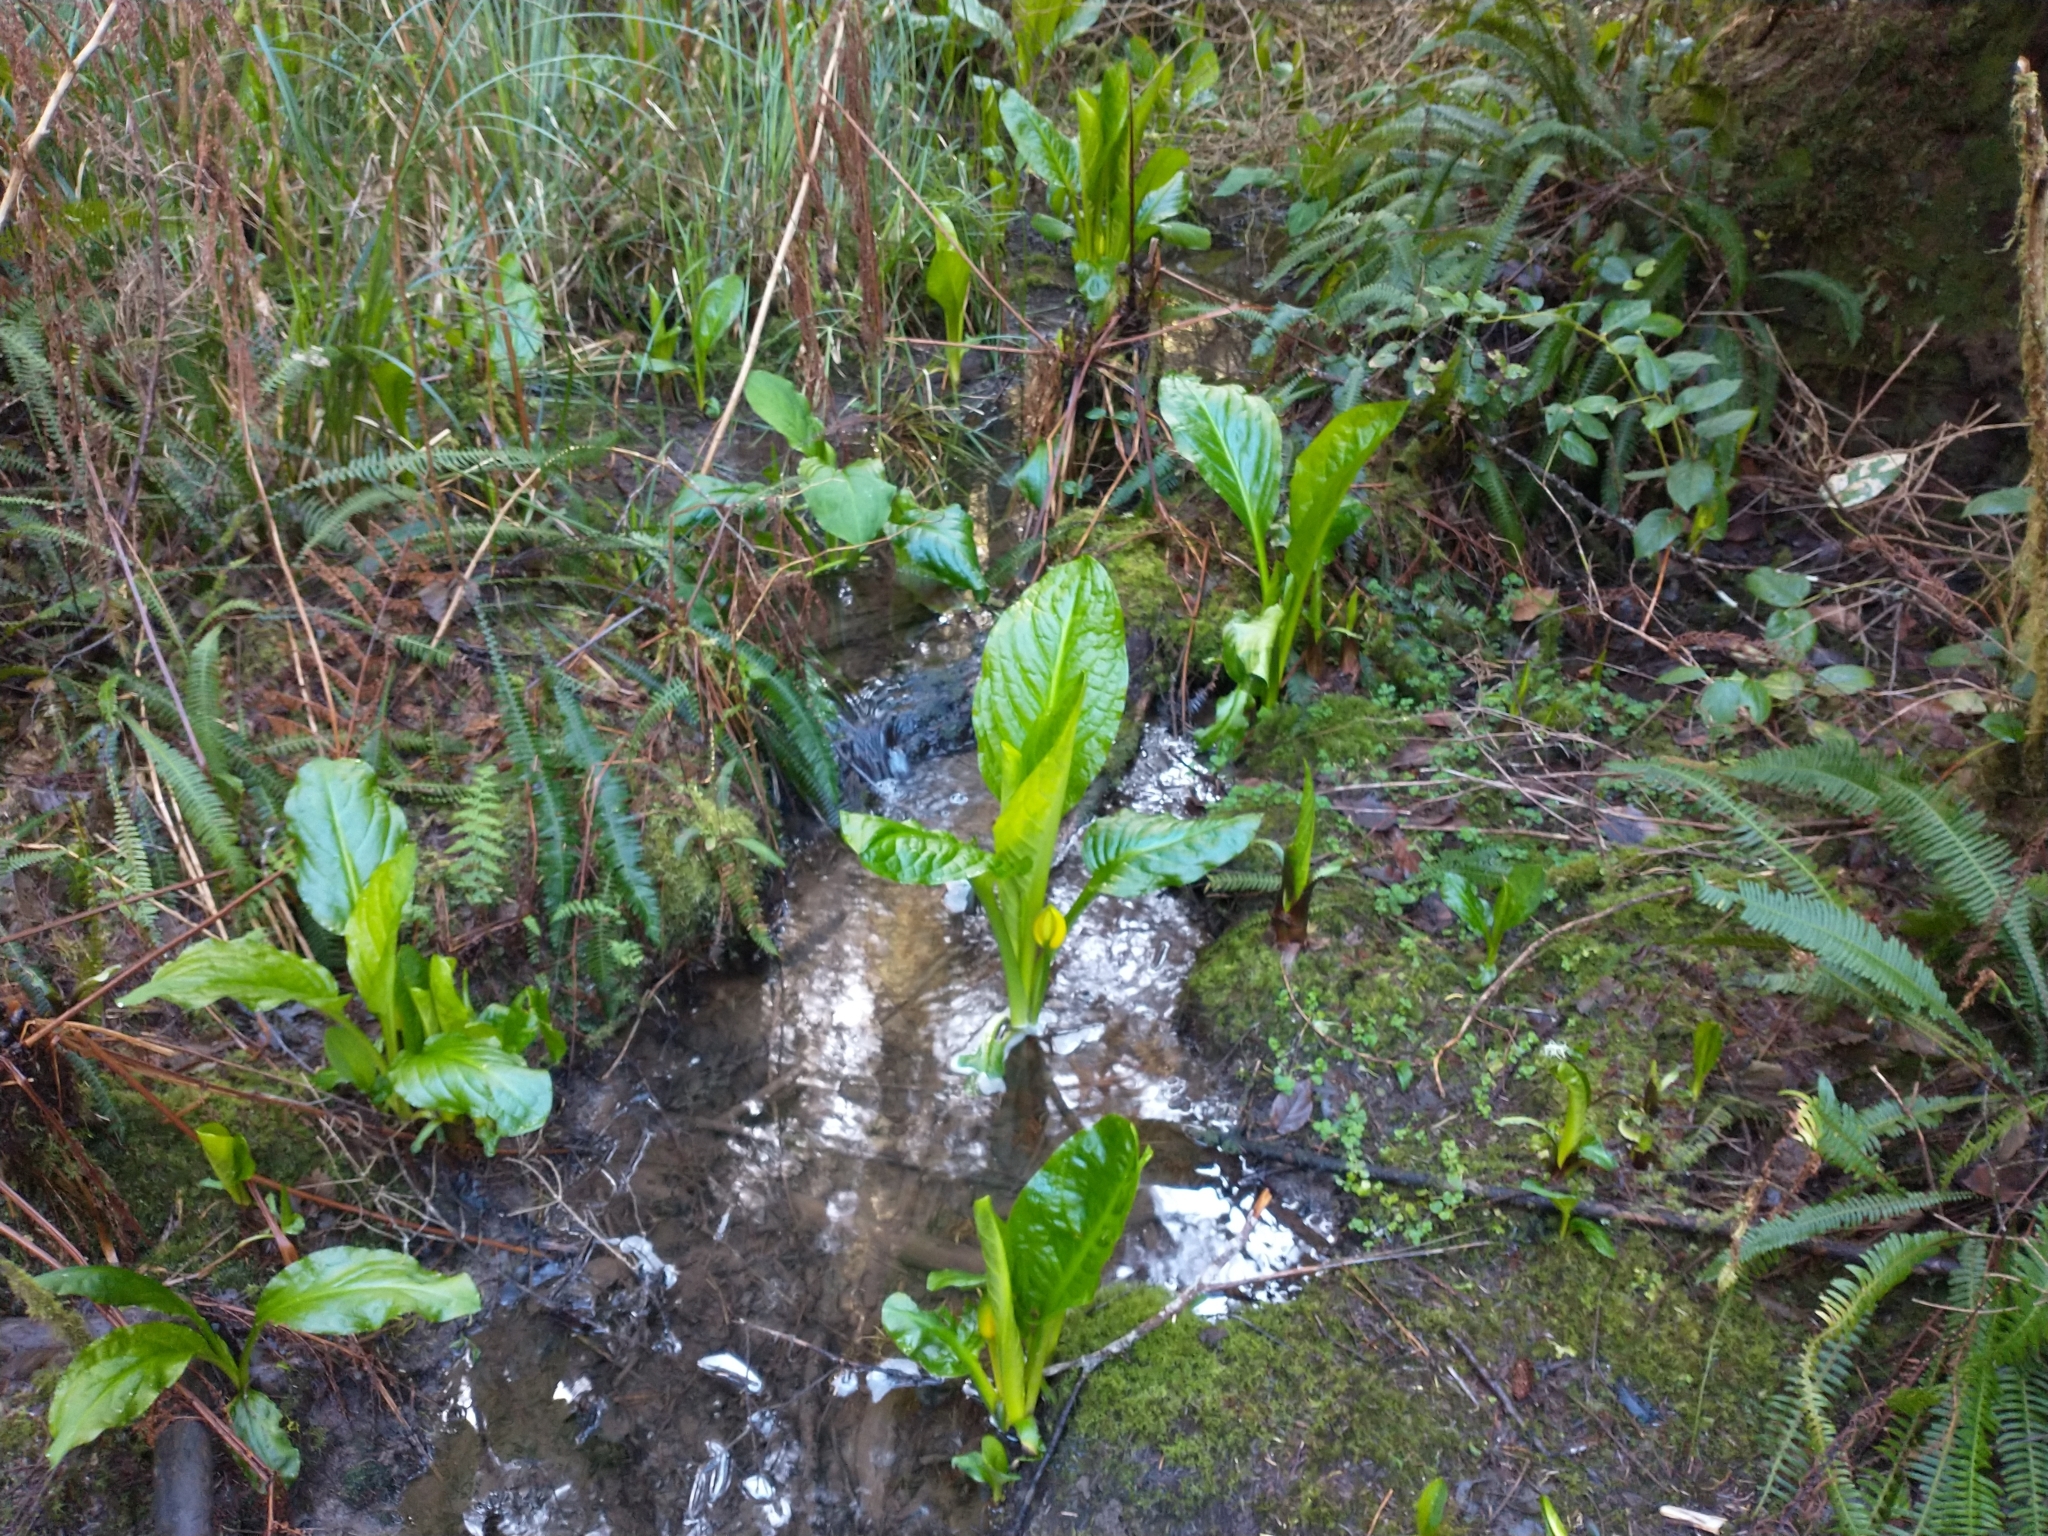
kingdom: Plantae
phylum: Tracheophyta
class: Liliopsida
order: Alismatales
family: Araceae
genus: Lysichiton
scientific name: Lysichiton americanus
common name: American skunk cabbage
